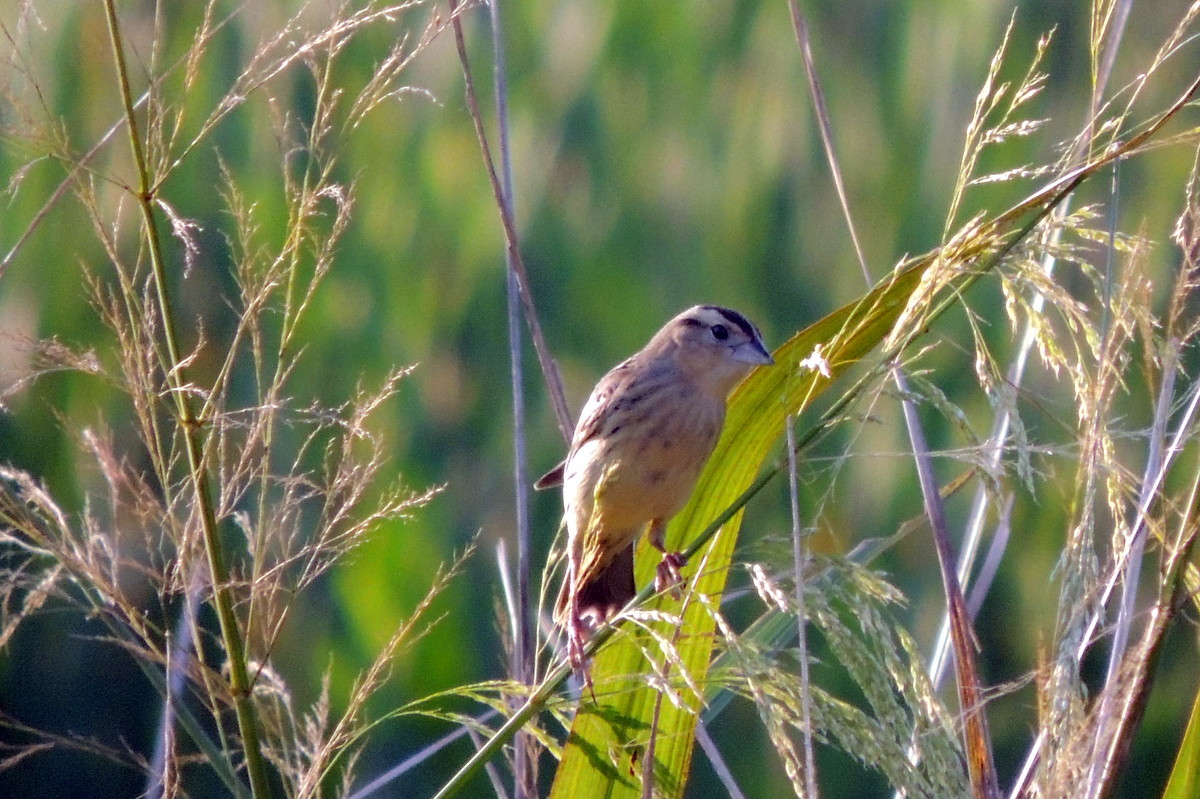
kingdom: Animalia
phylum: Chordata
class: Aves
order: Passeriformes
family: Icteridae
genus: Dolichonyx
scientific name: Dolichonyx oryzivorus
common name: Bobolink
